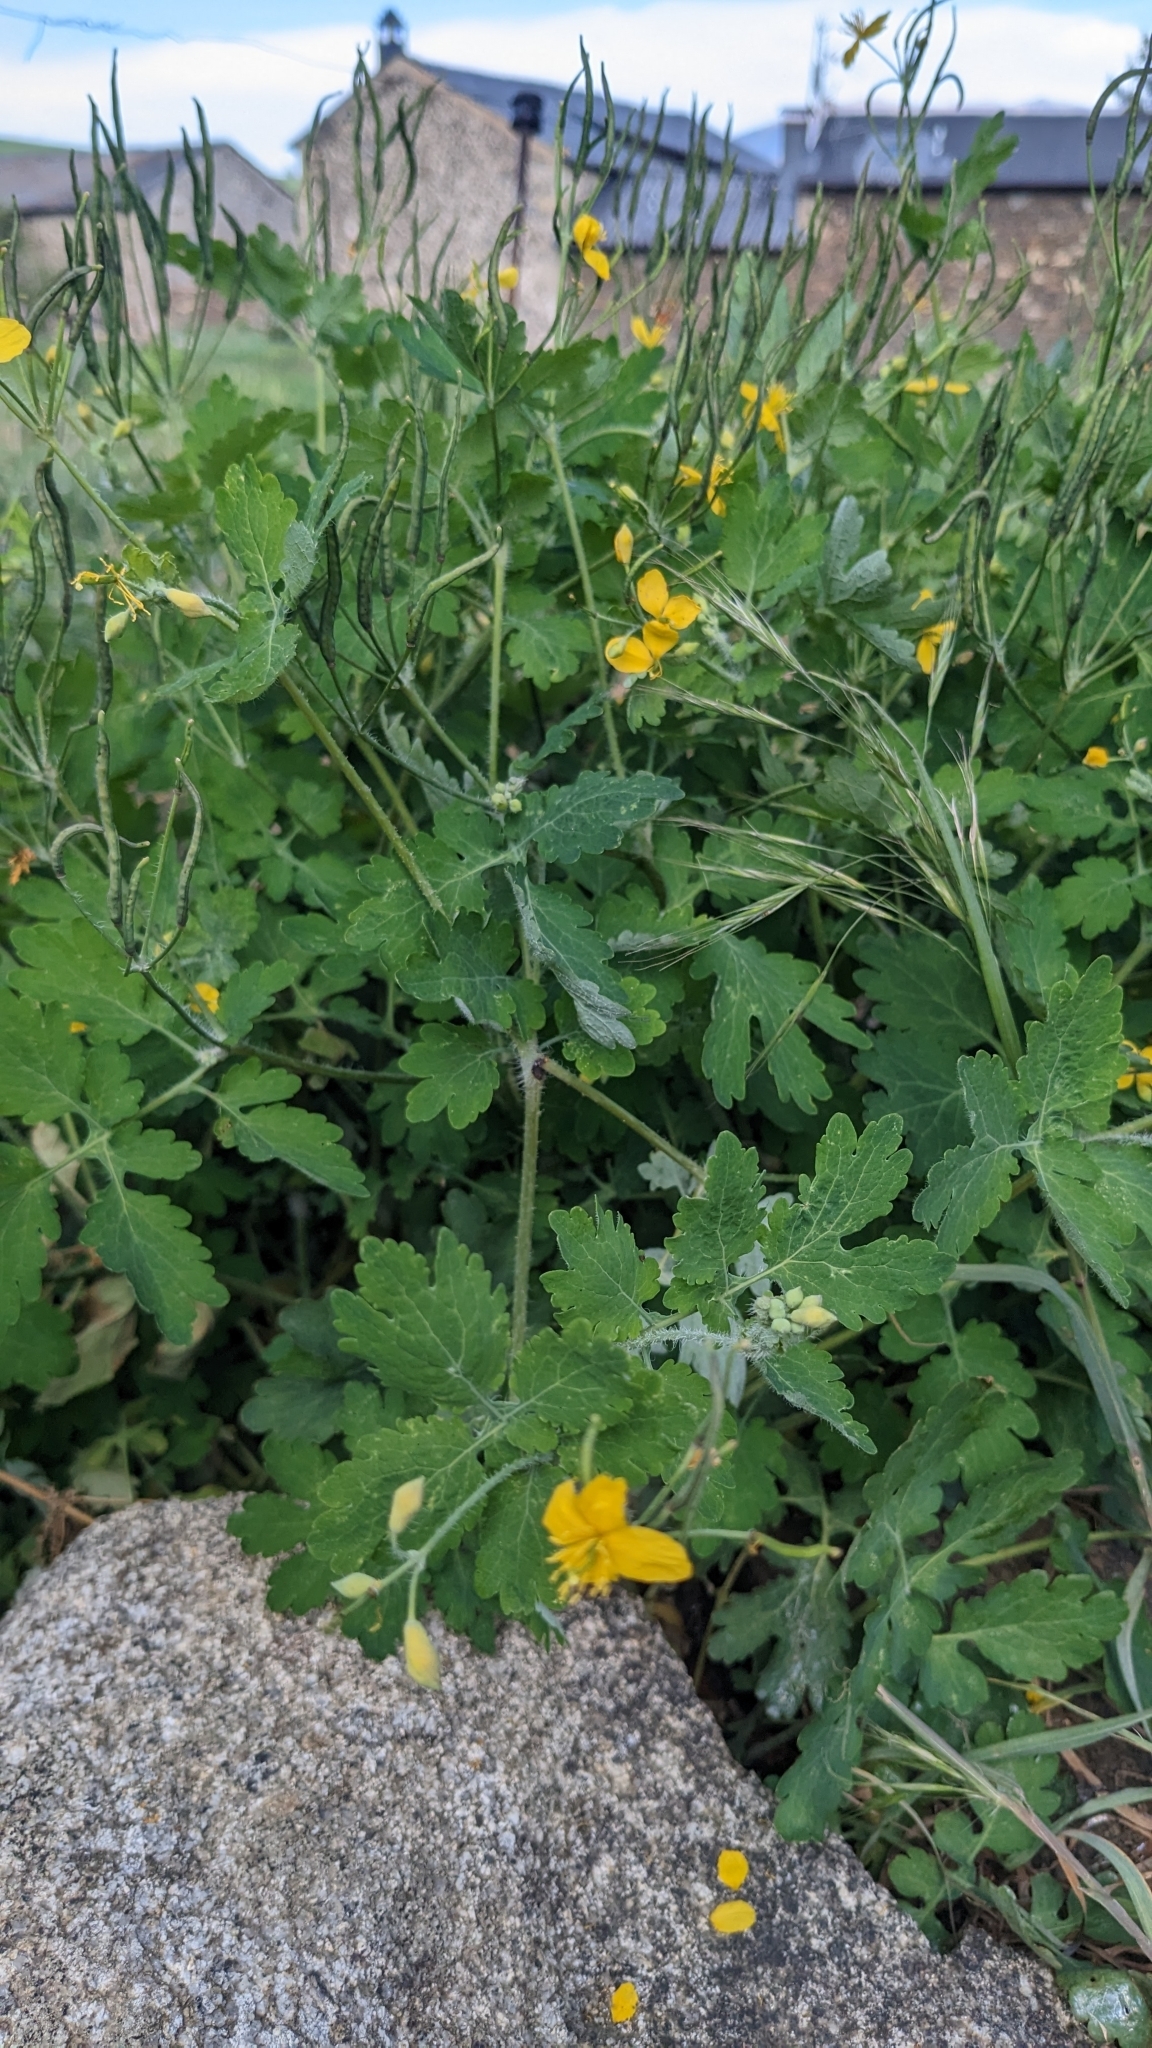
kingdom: Plantae
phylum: Tracheophyta
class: Magnoliopsida
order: Ranunculales
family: Papaveraceae
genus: Chelidonium
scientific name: Chelidonium majus
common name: Greater celandine
